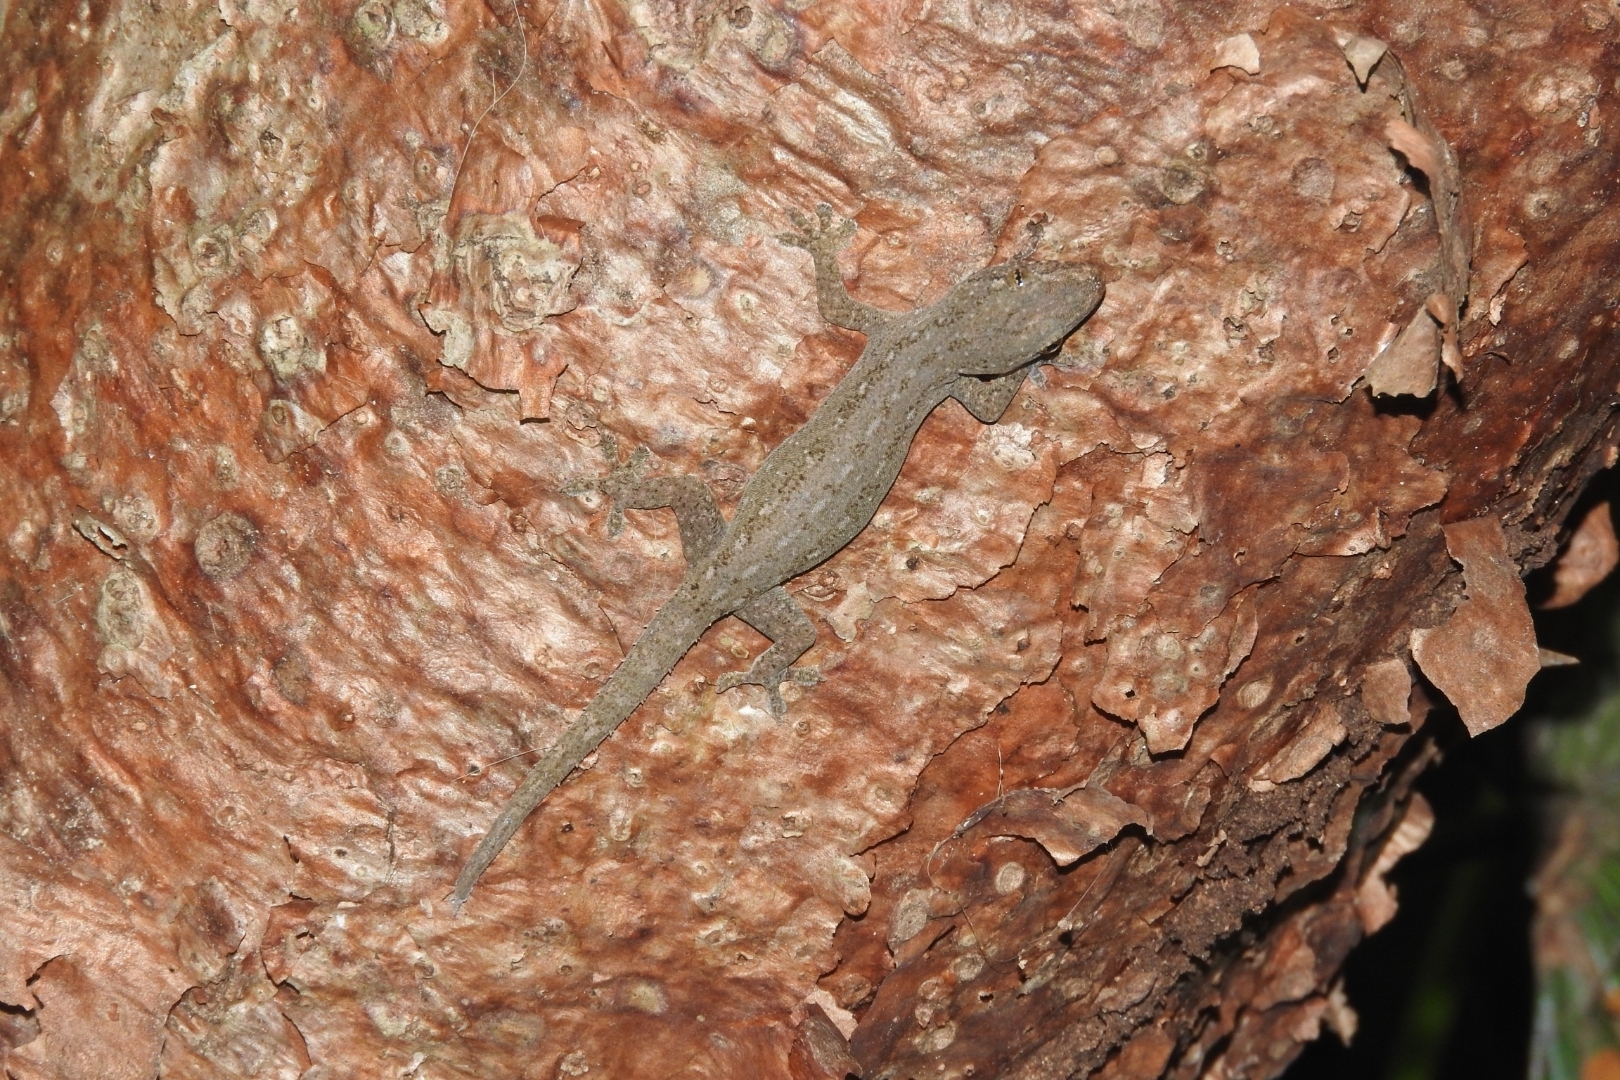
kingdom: Animalia
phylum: Chordata
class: Squamata
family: Gekkonidae
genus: Hemidactylus
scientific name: Hemidactylus frenatus
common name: Common house gecko
